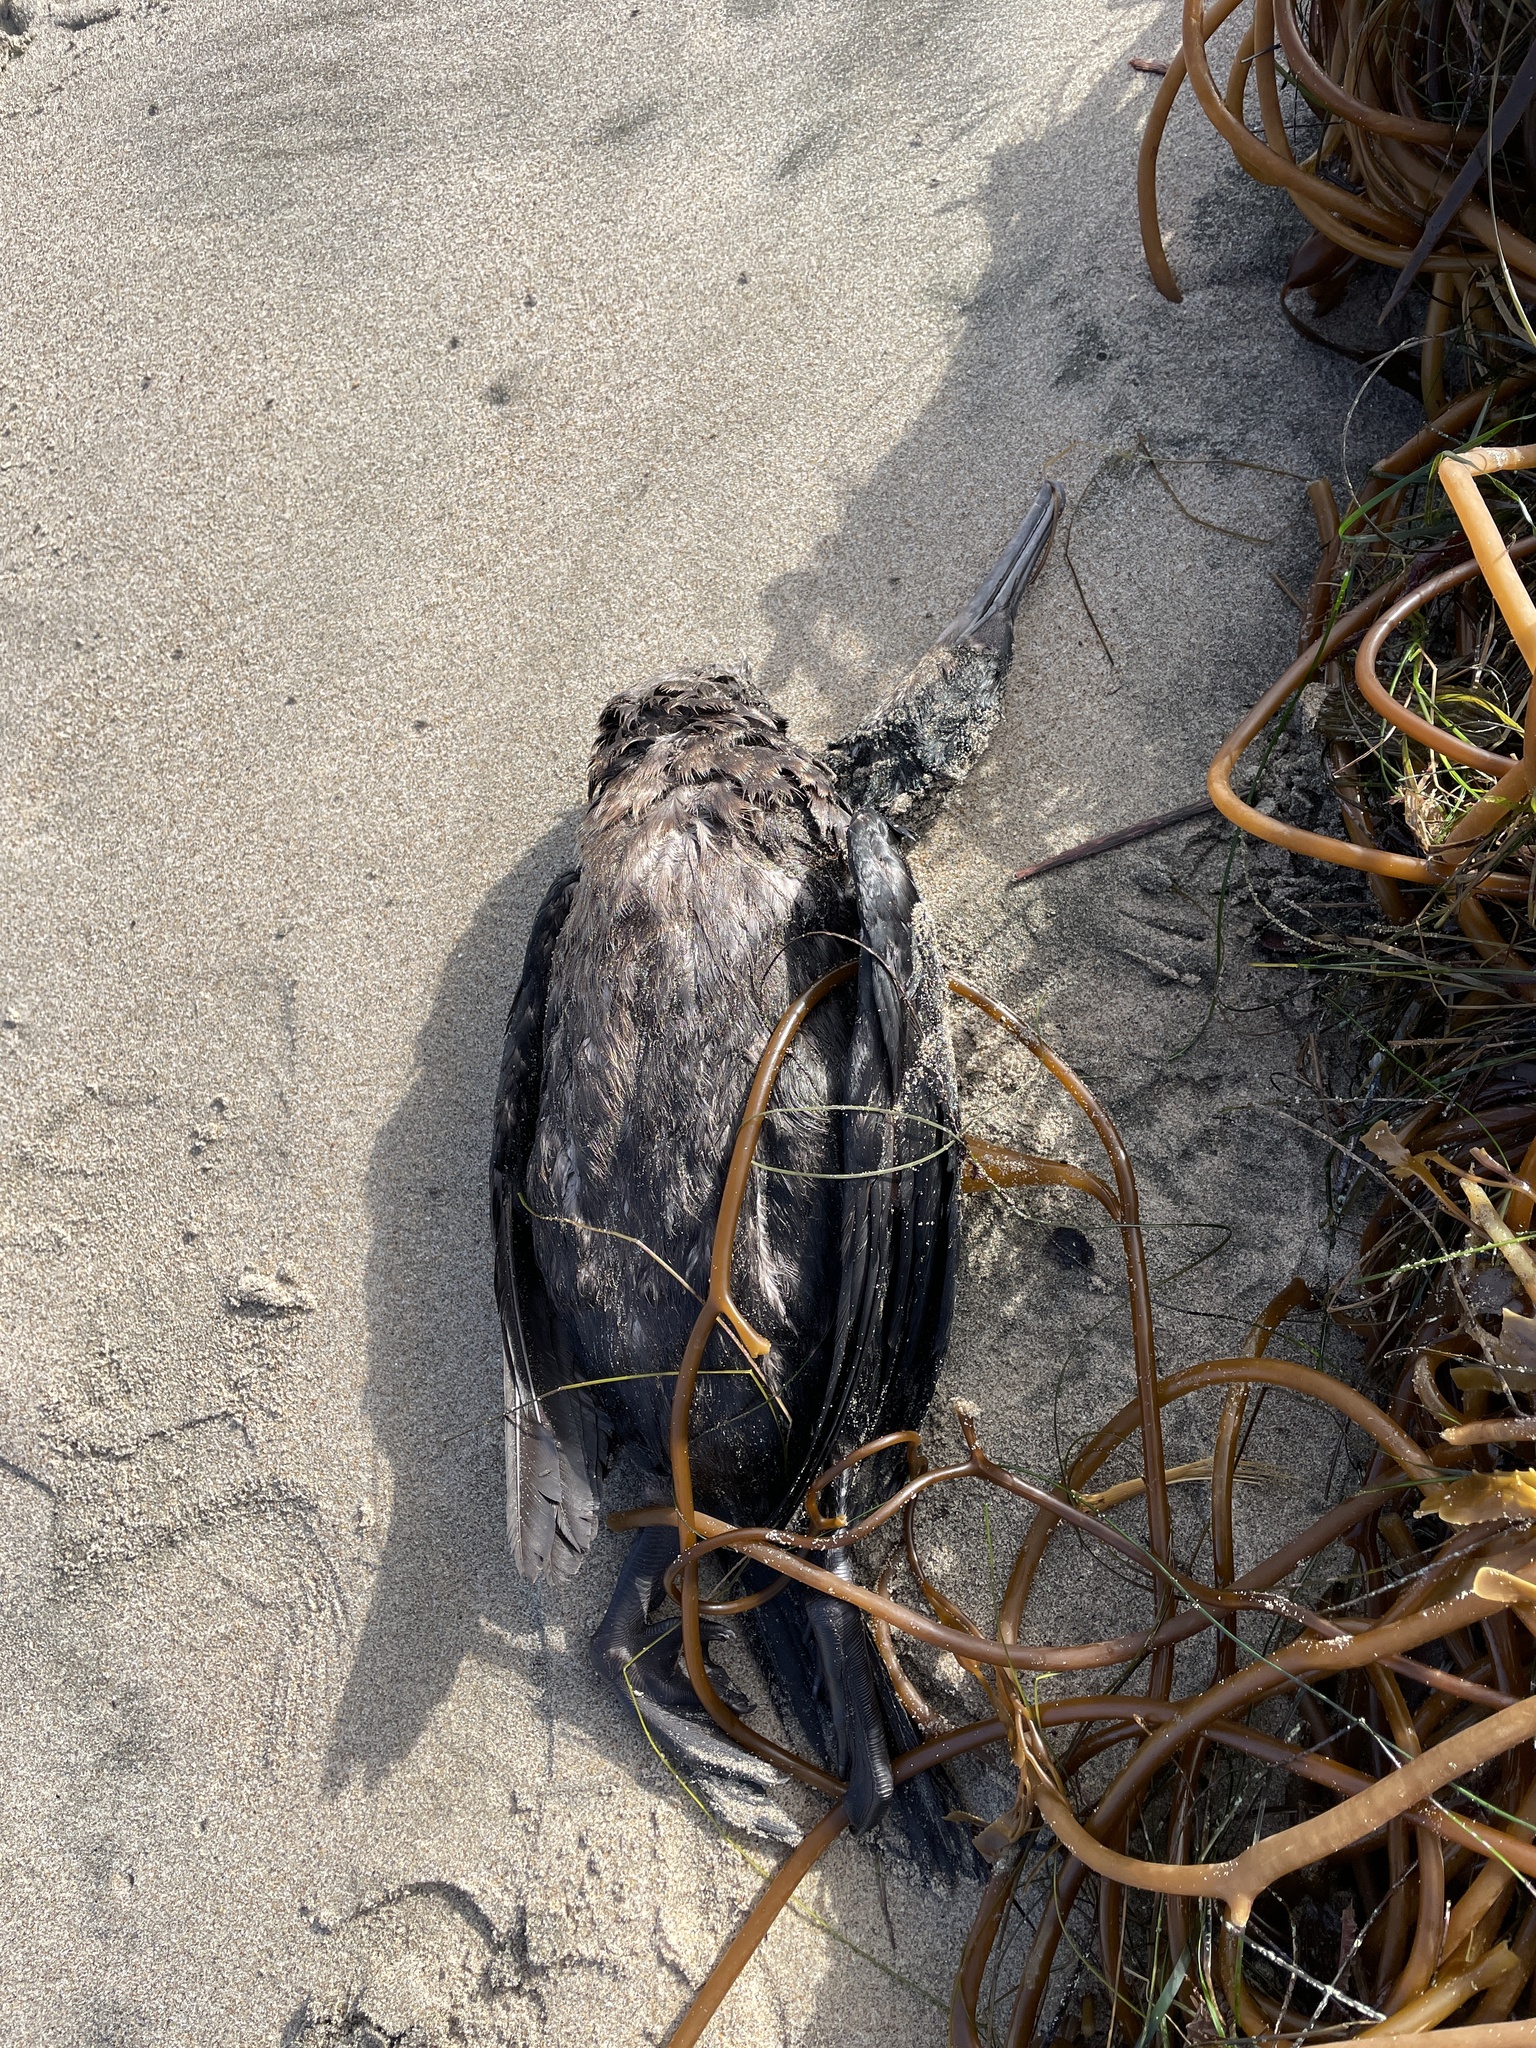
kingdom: Animalia
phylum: Chordata
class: Aves
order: Suliformes
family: Phalacrocoracidae
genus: Urile
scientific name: Urile penicillatus
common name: Brandt's cormorant
